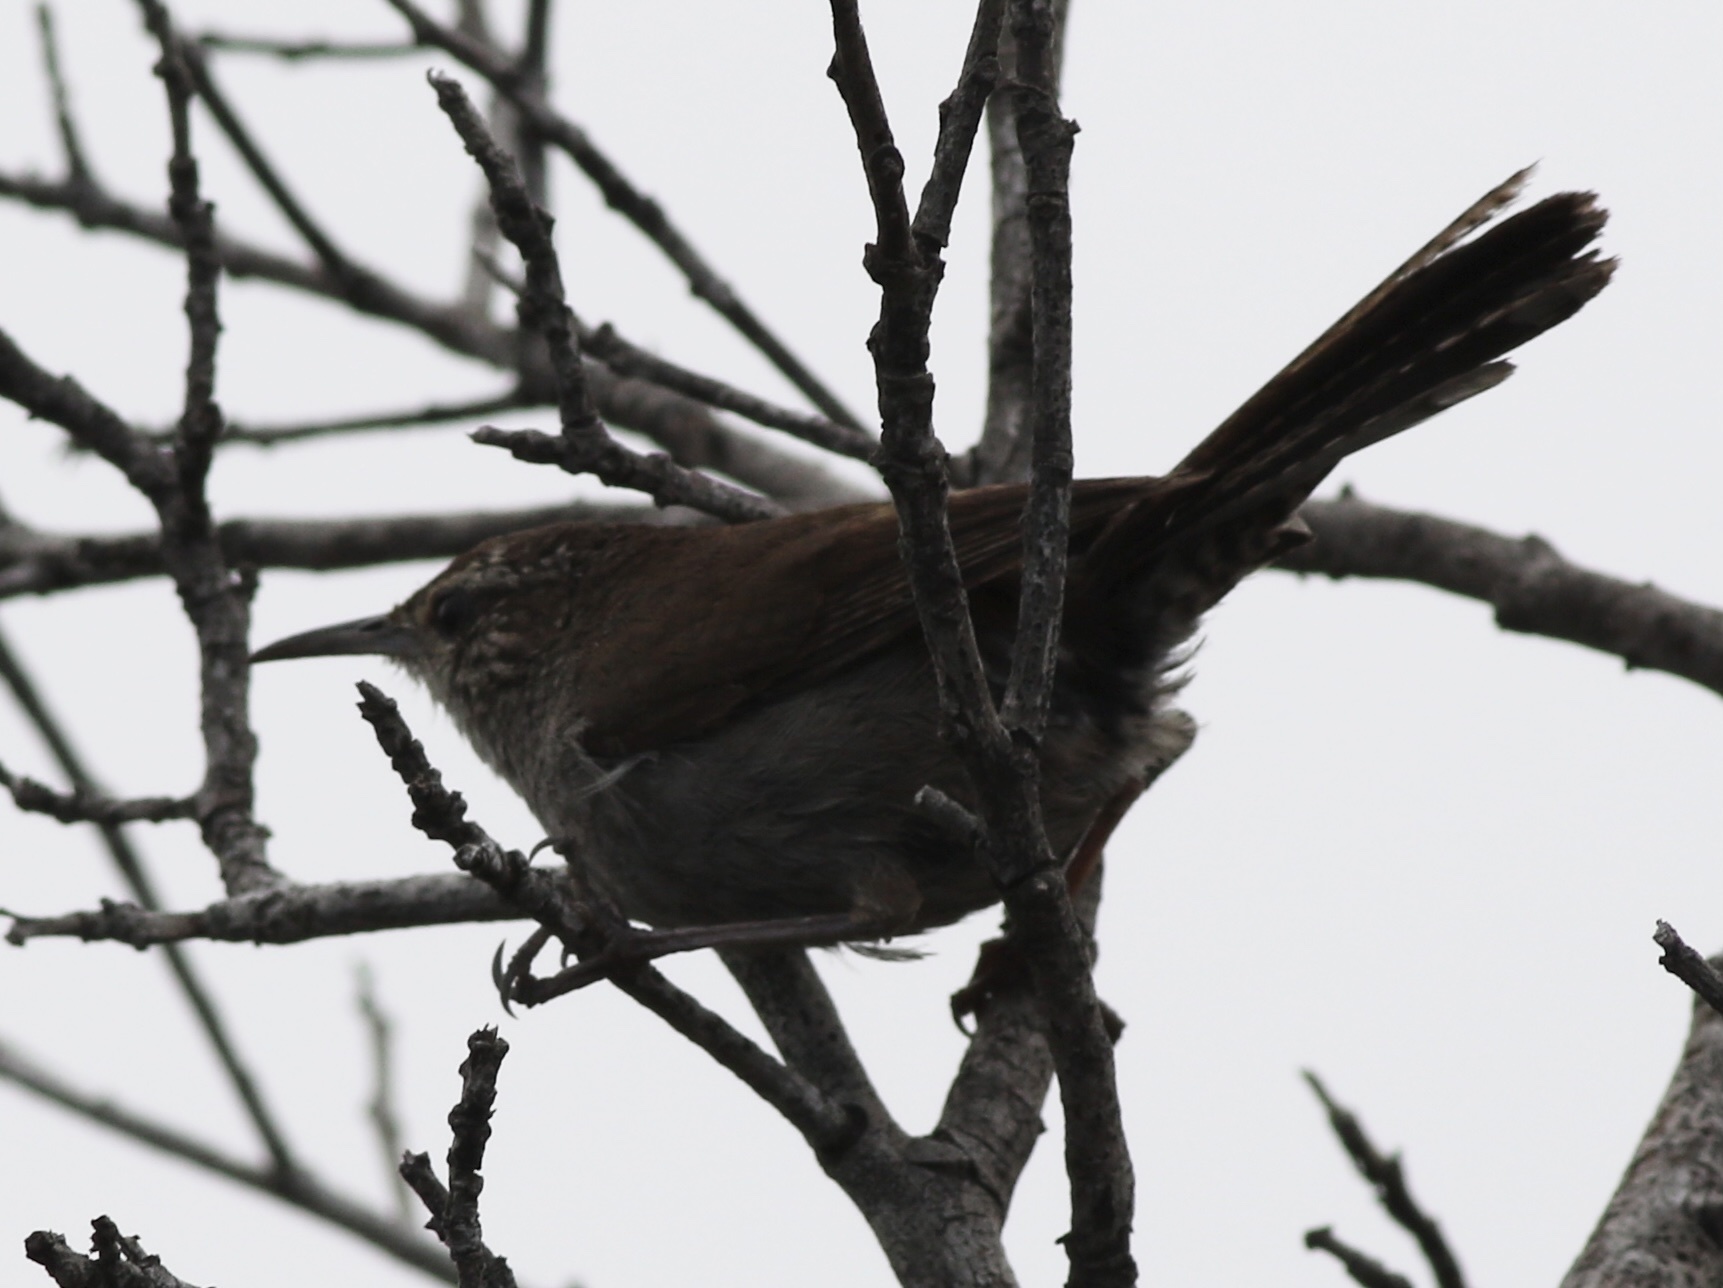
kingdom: Animalia
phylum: Chordata
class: Aves
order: Passeriformes
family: Troglodytidae
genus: Thryomanes
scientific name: Thryomanes bewickii
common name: Bewick's wren
